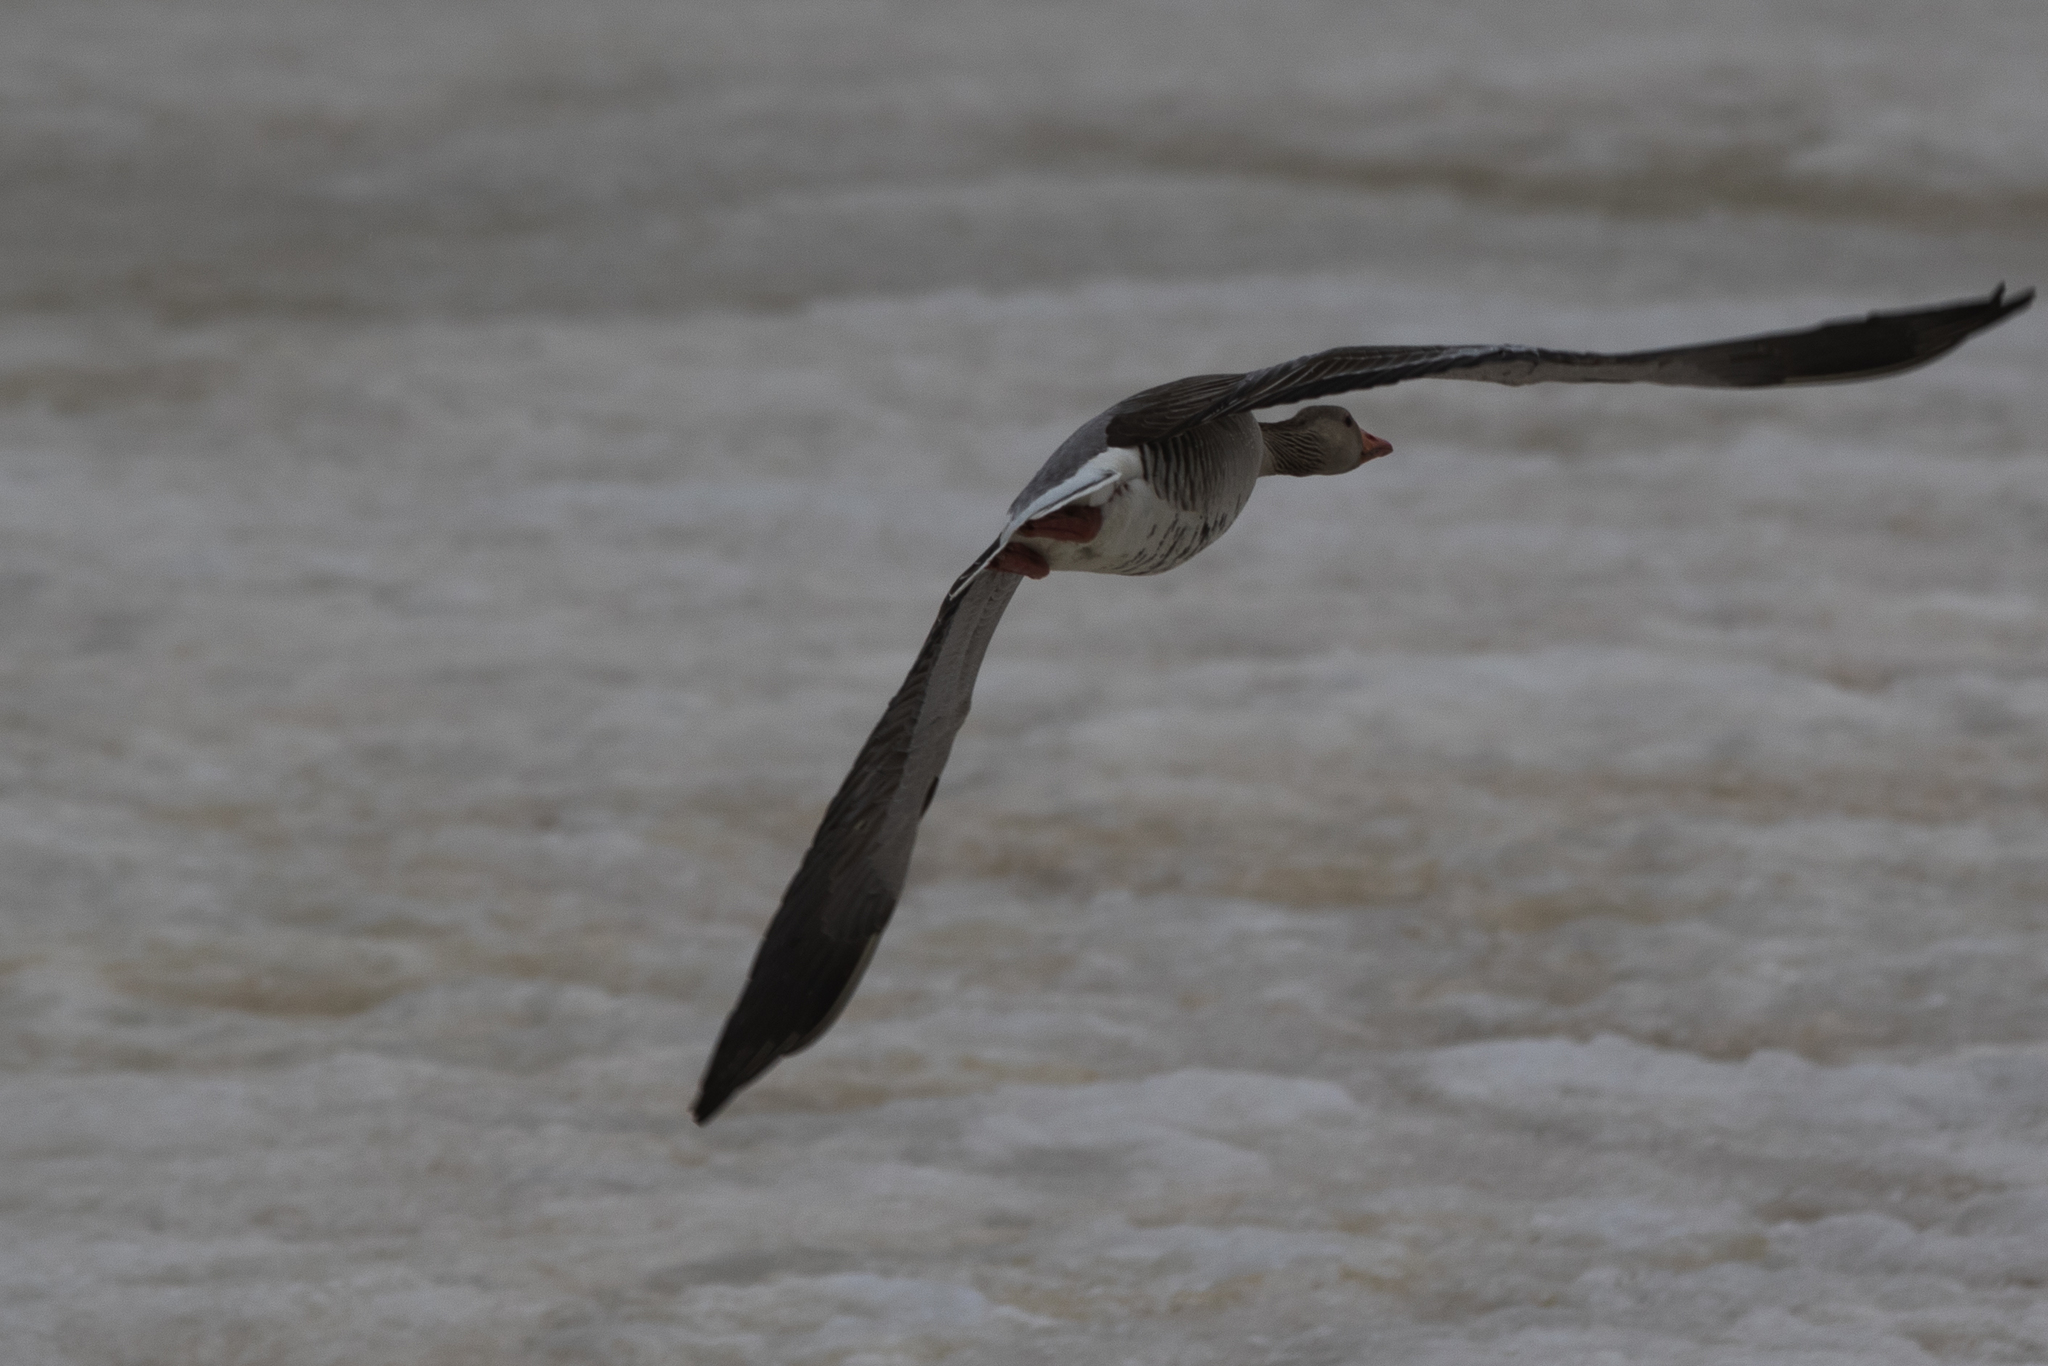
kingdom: Animalia
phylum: Chordata
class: Aves
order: Anseriformes
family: Anatidae
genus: Anser
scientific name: Anser anser
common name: Greylag goose
